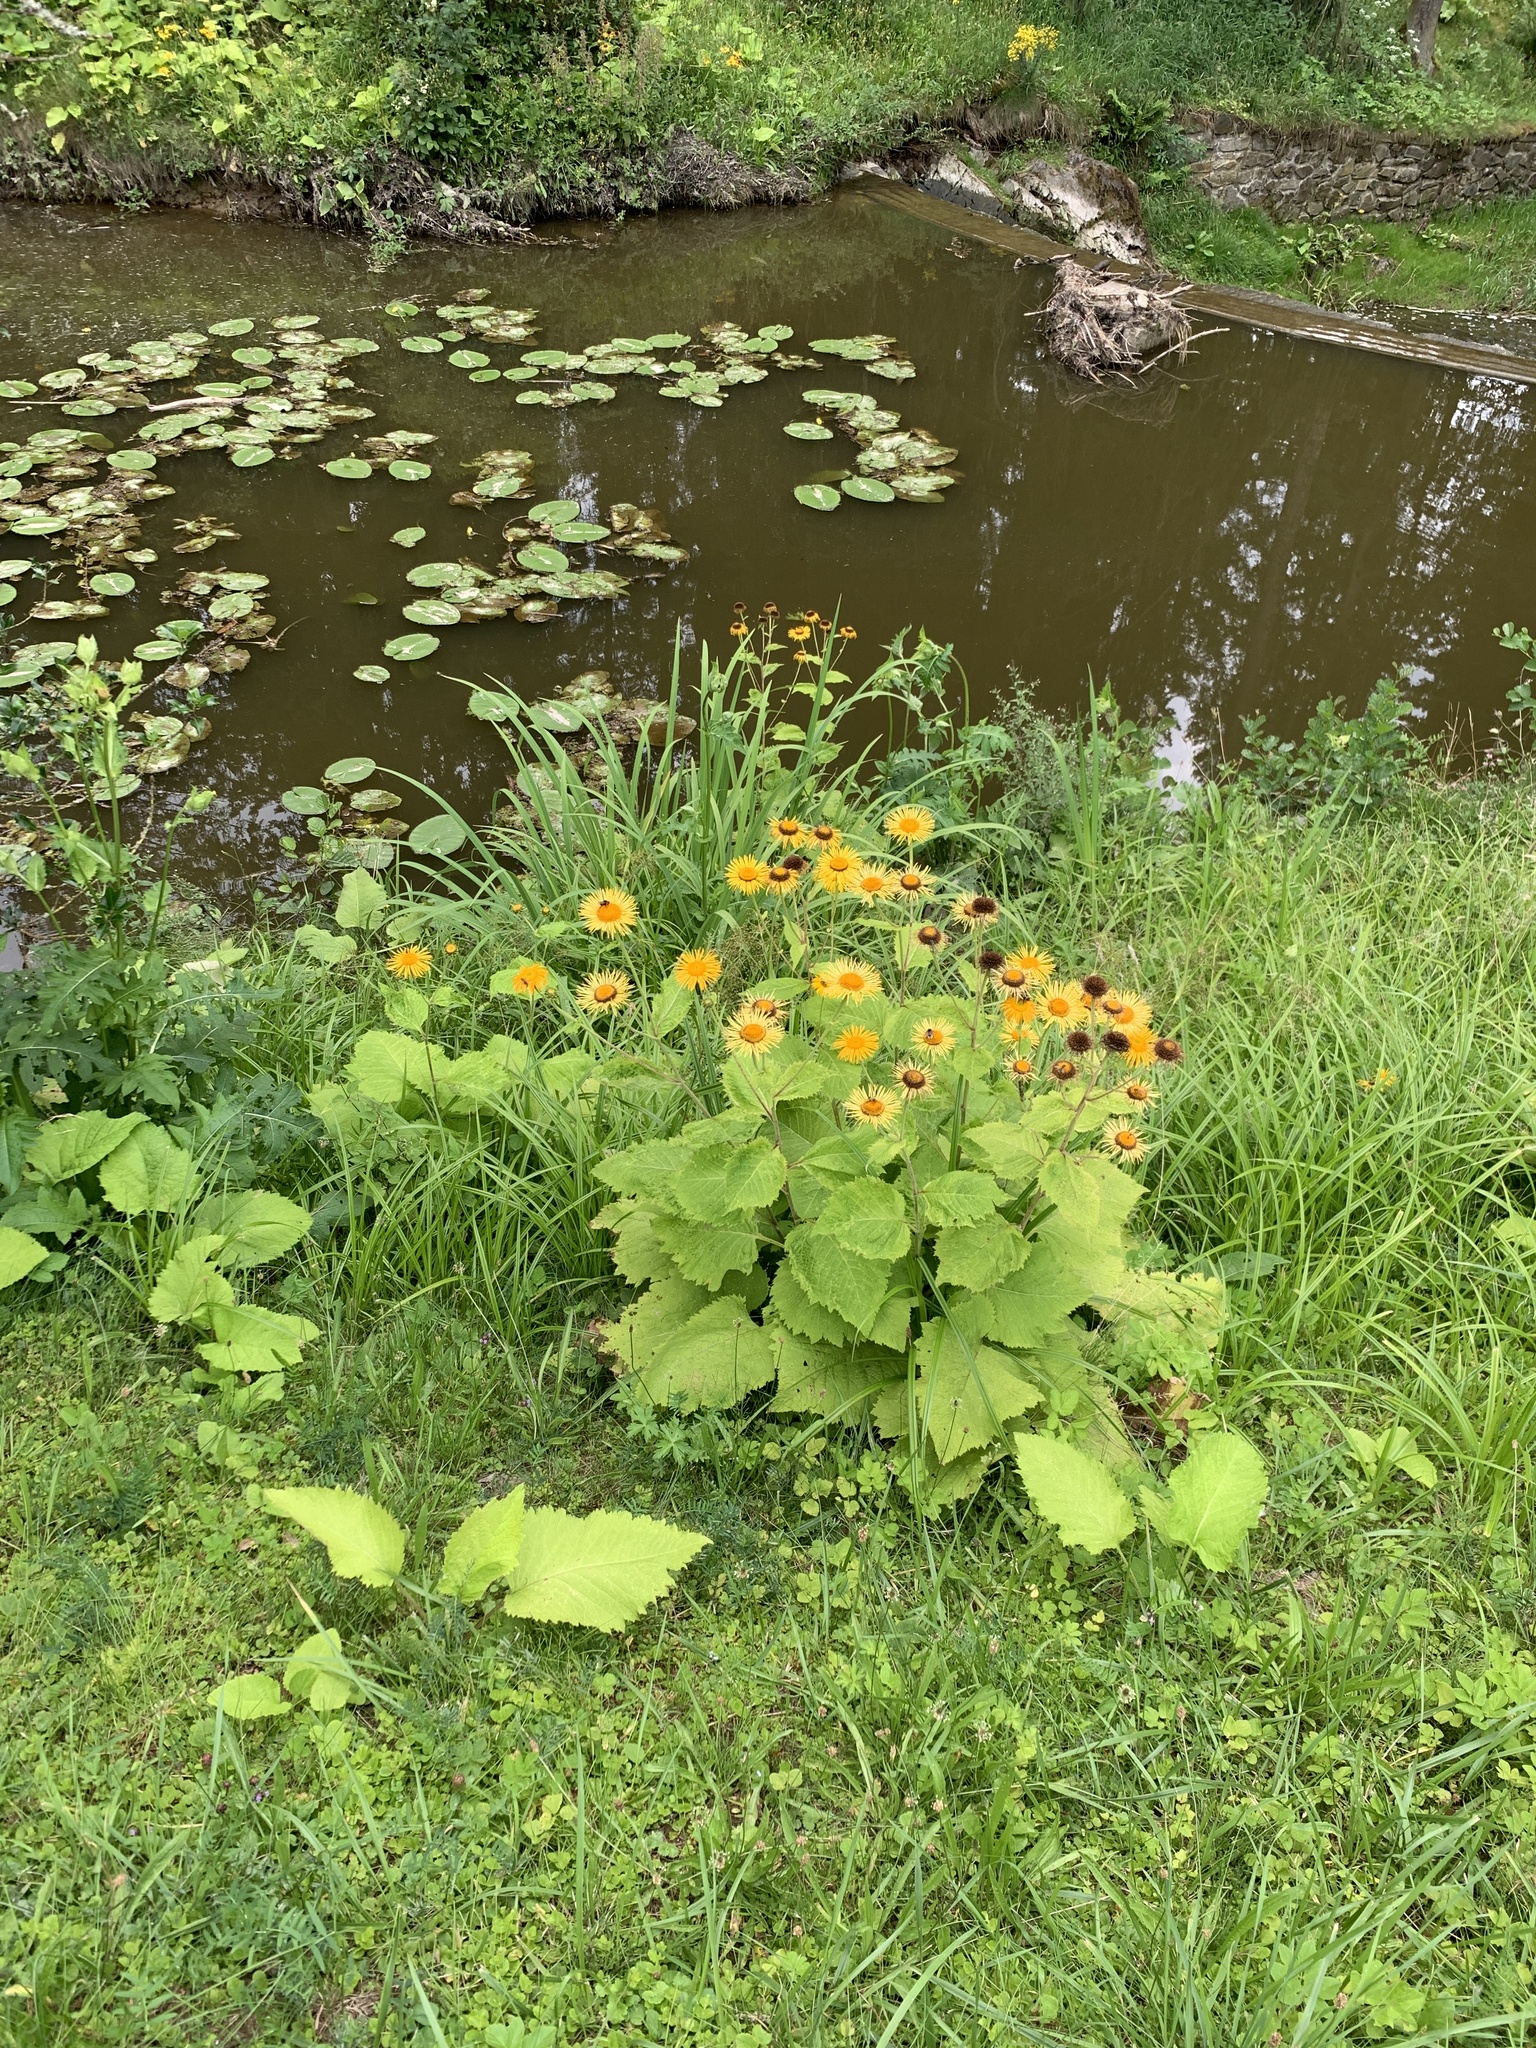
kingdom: Plantae
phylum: Tracheophyta
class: Magnoliopsida
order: Asterales
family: Asteraceae
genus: Telekia
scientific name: Telekia speciosa
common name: Yellow oxeye
